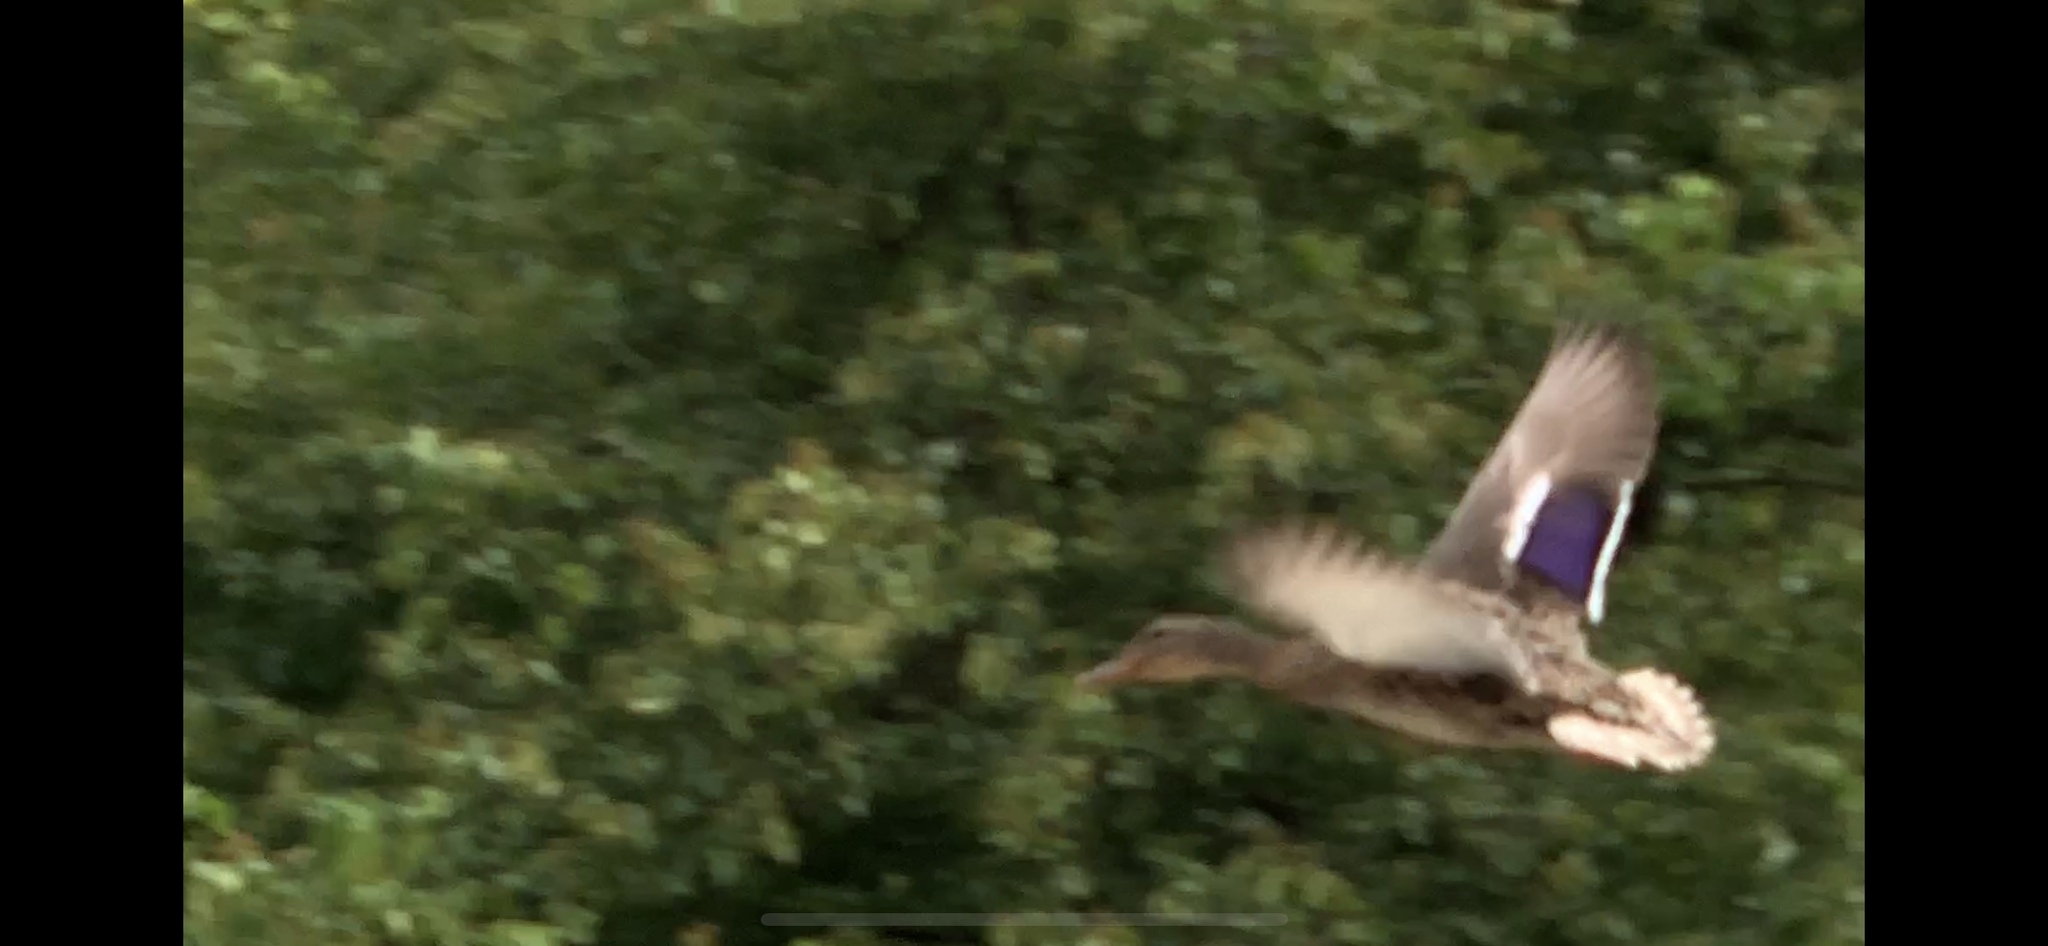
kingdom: Animalia
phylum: Chordata
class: Aves
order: Anseriformes
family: Anatidae
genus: Anas
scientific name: Anas platyrhynchos
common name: Mallard
